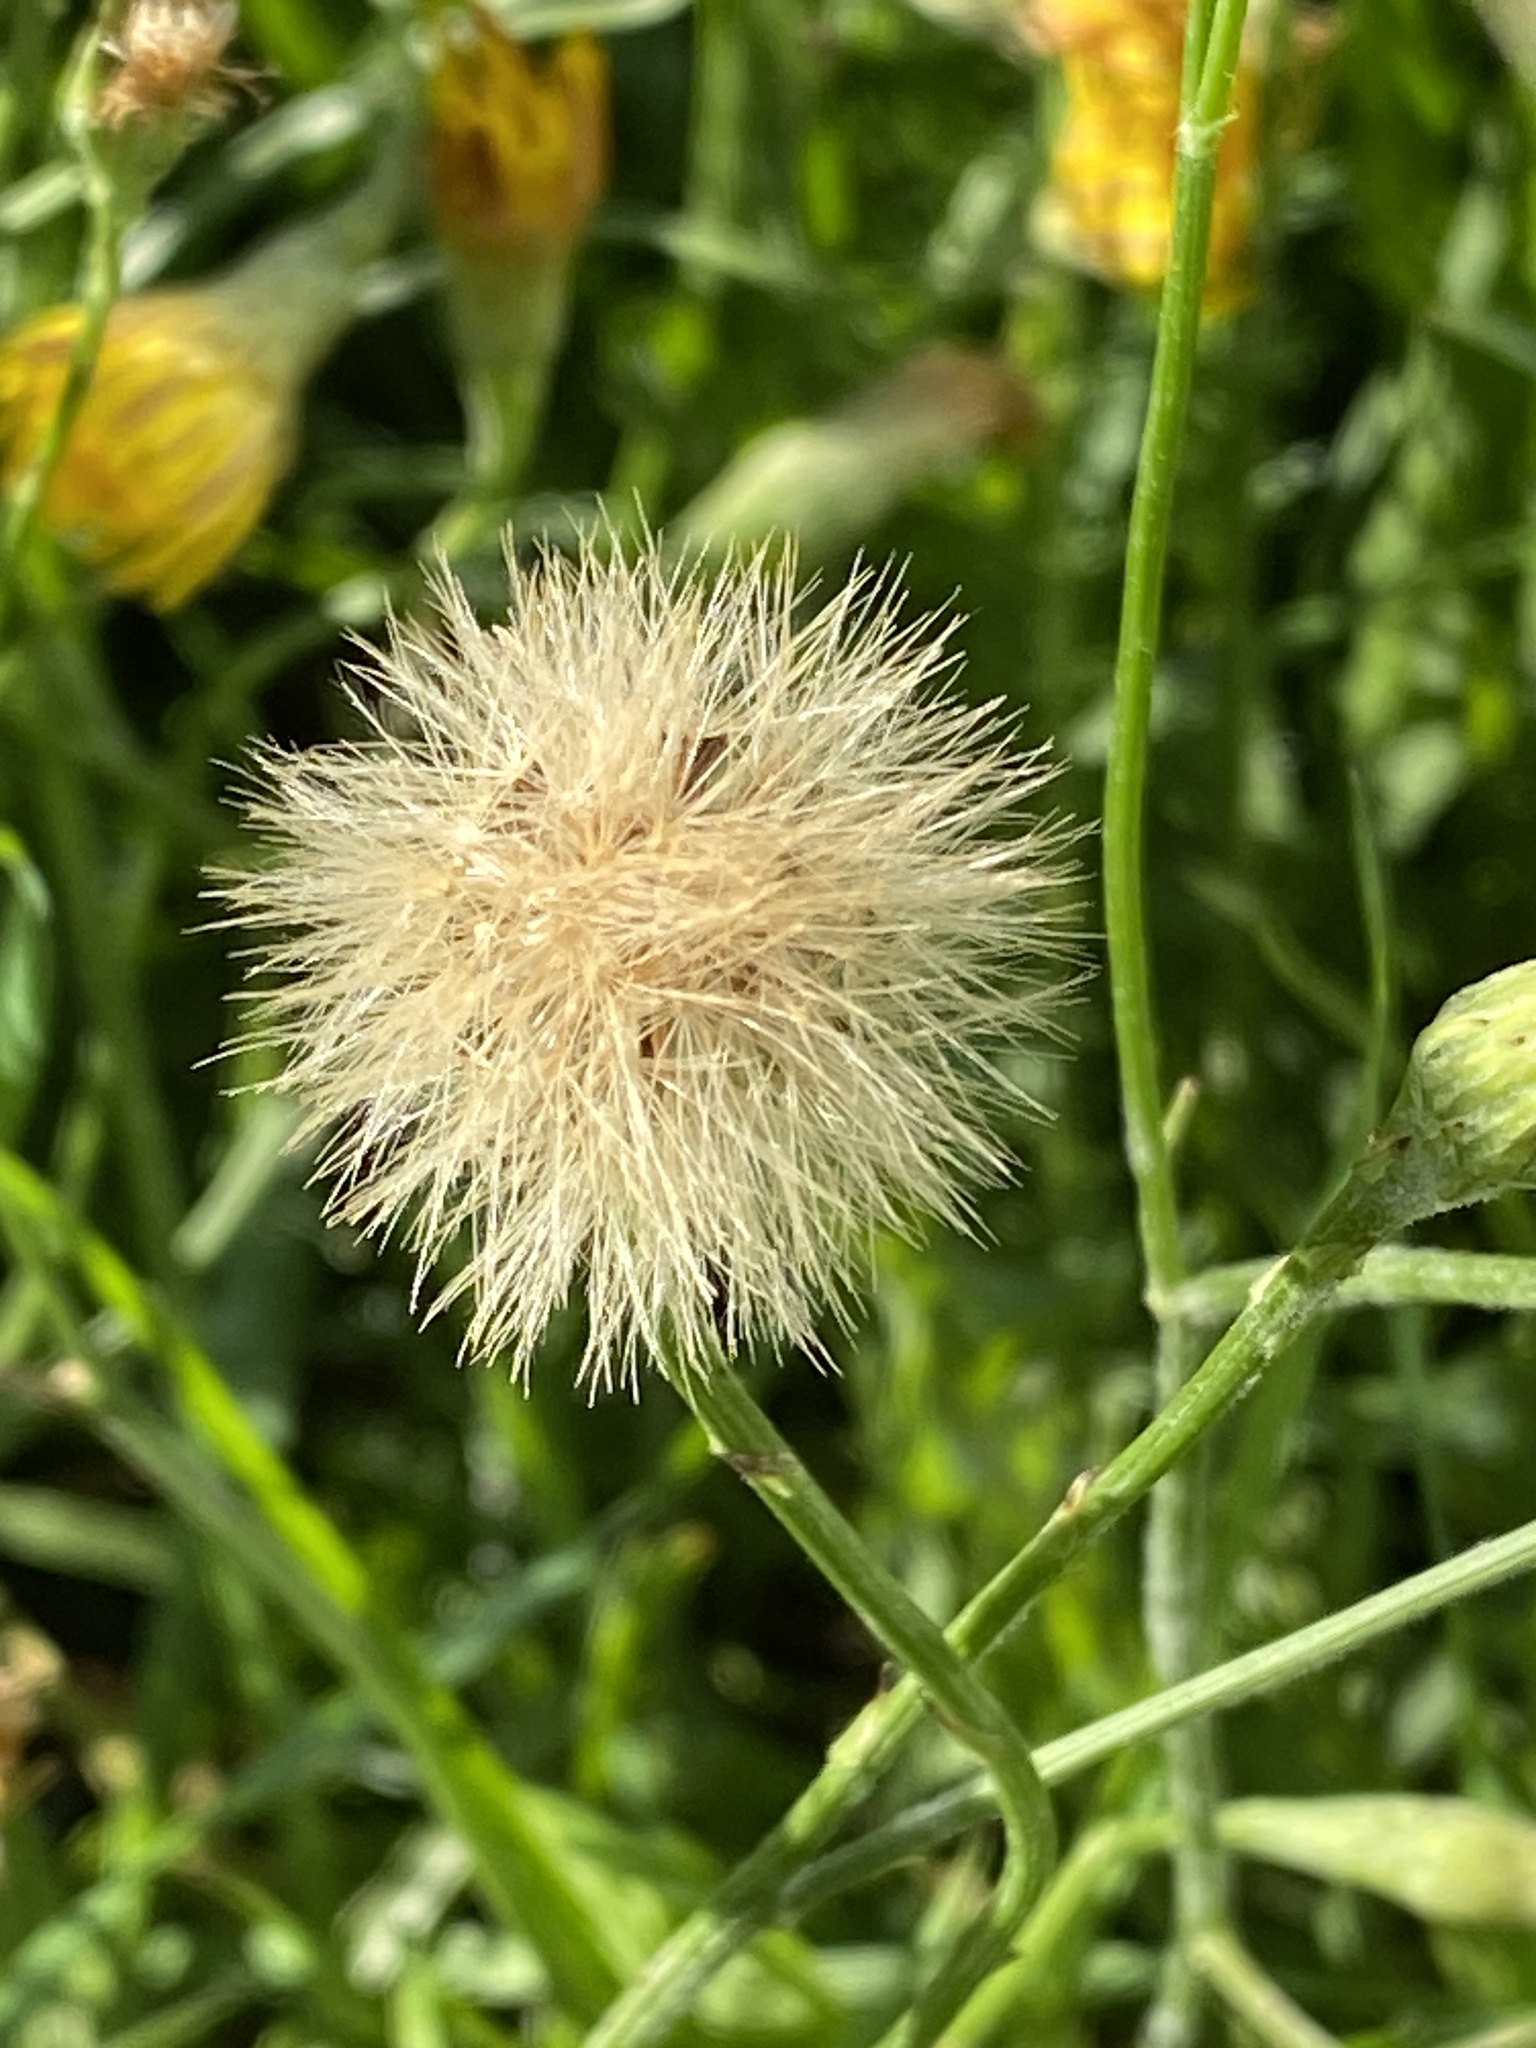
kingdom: Plantae
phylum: Tracheophyta
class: Magnoliopsida
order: Asterales
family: Asteraceae
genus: Scorzoneroides
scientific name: Scorzoneroides autumnalis
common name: Autumn hawkbit
